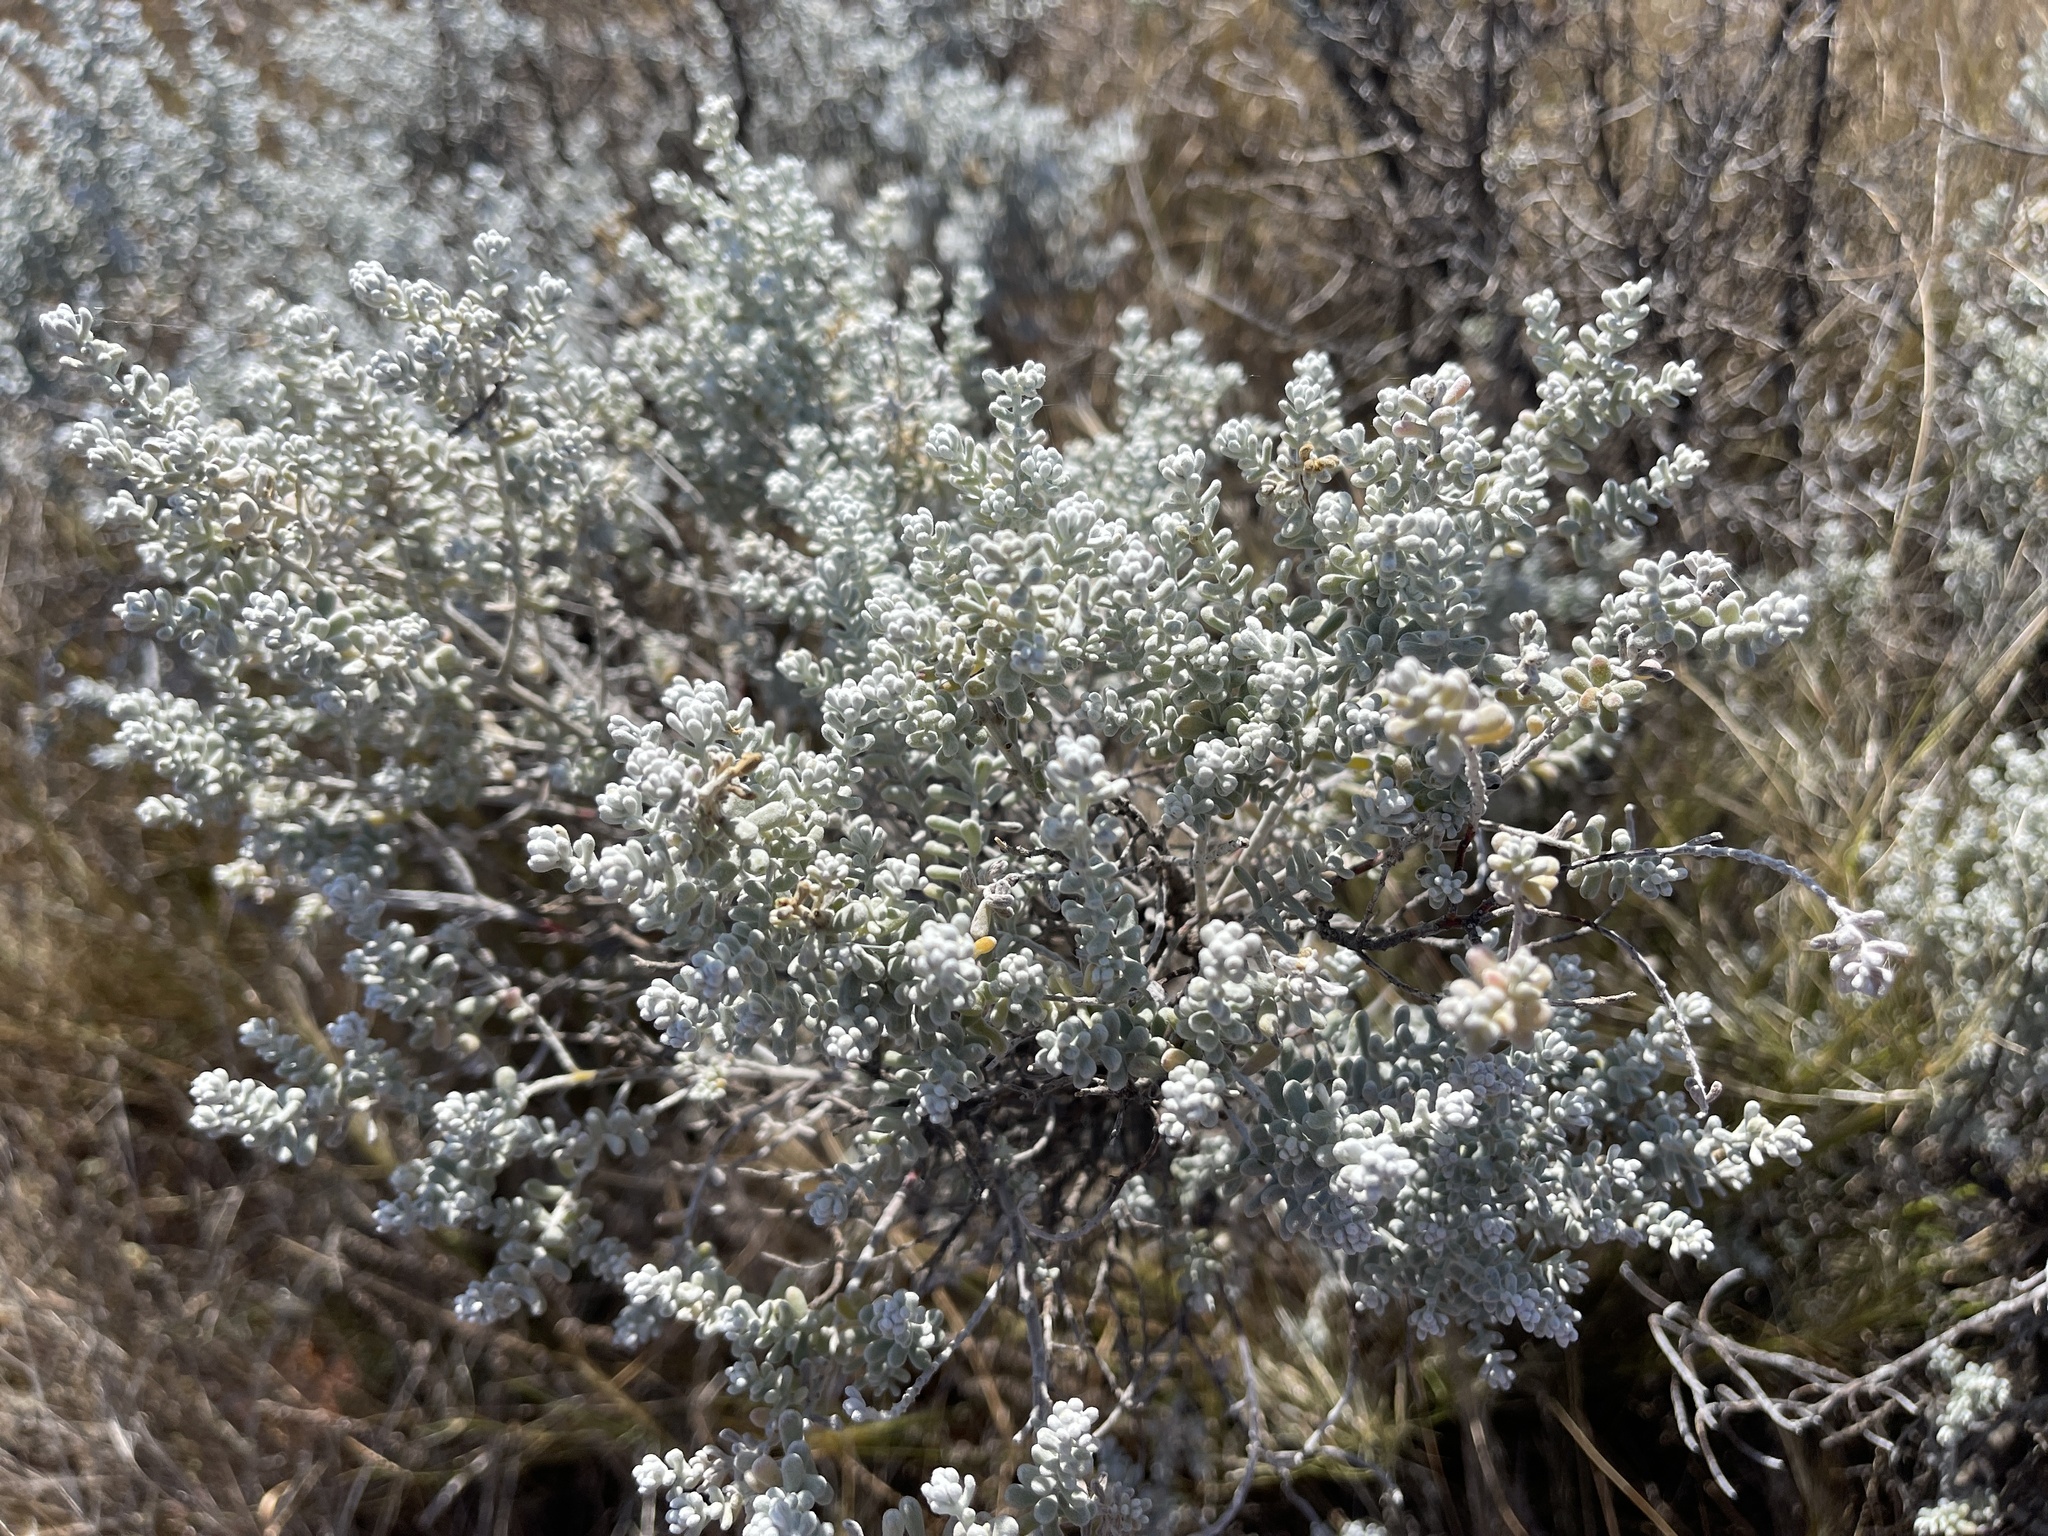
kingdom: Plantae
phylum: Tracheophyta
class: Magnoliopsida
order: Caryophyllales
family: Amaranthaceae
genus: Maireana
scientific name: Maireana sedifolia
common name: Hoary bluebush
